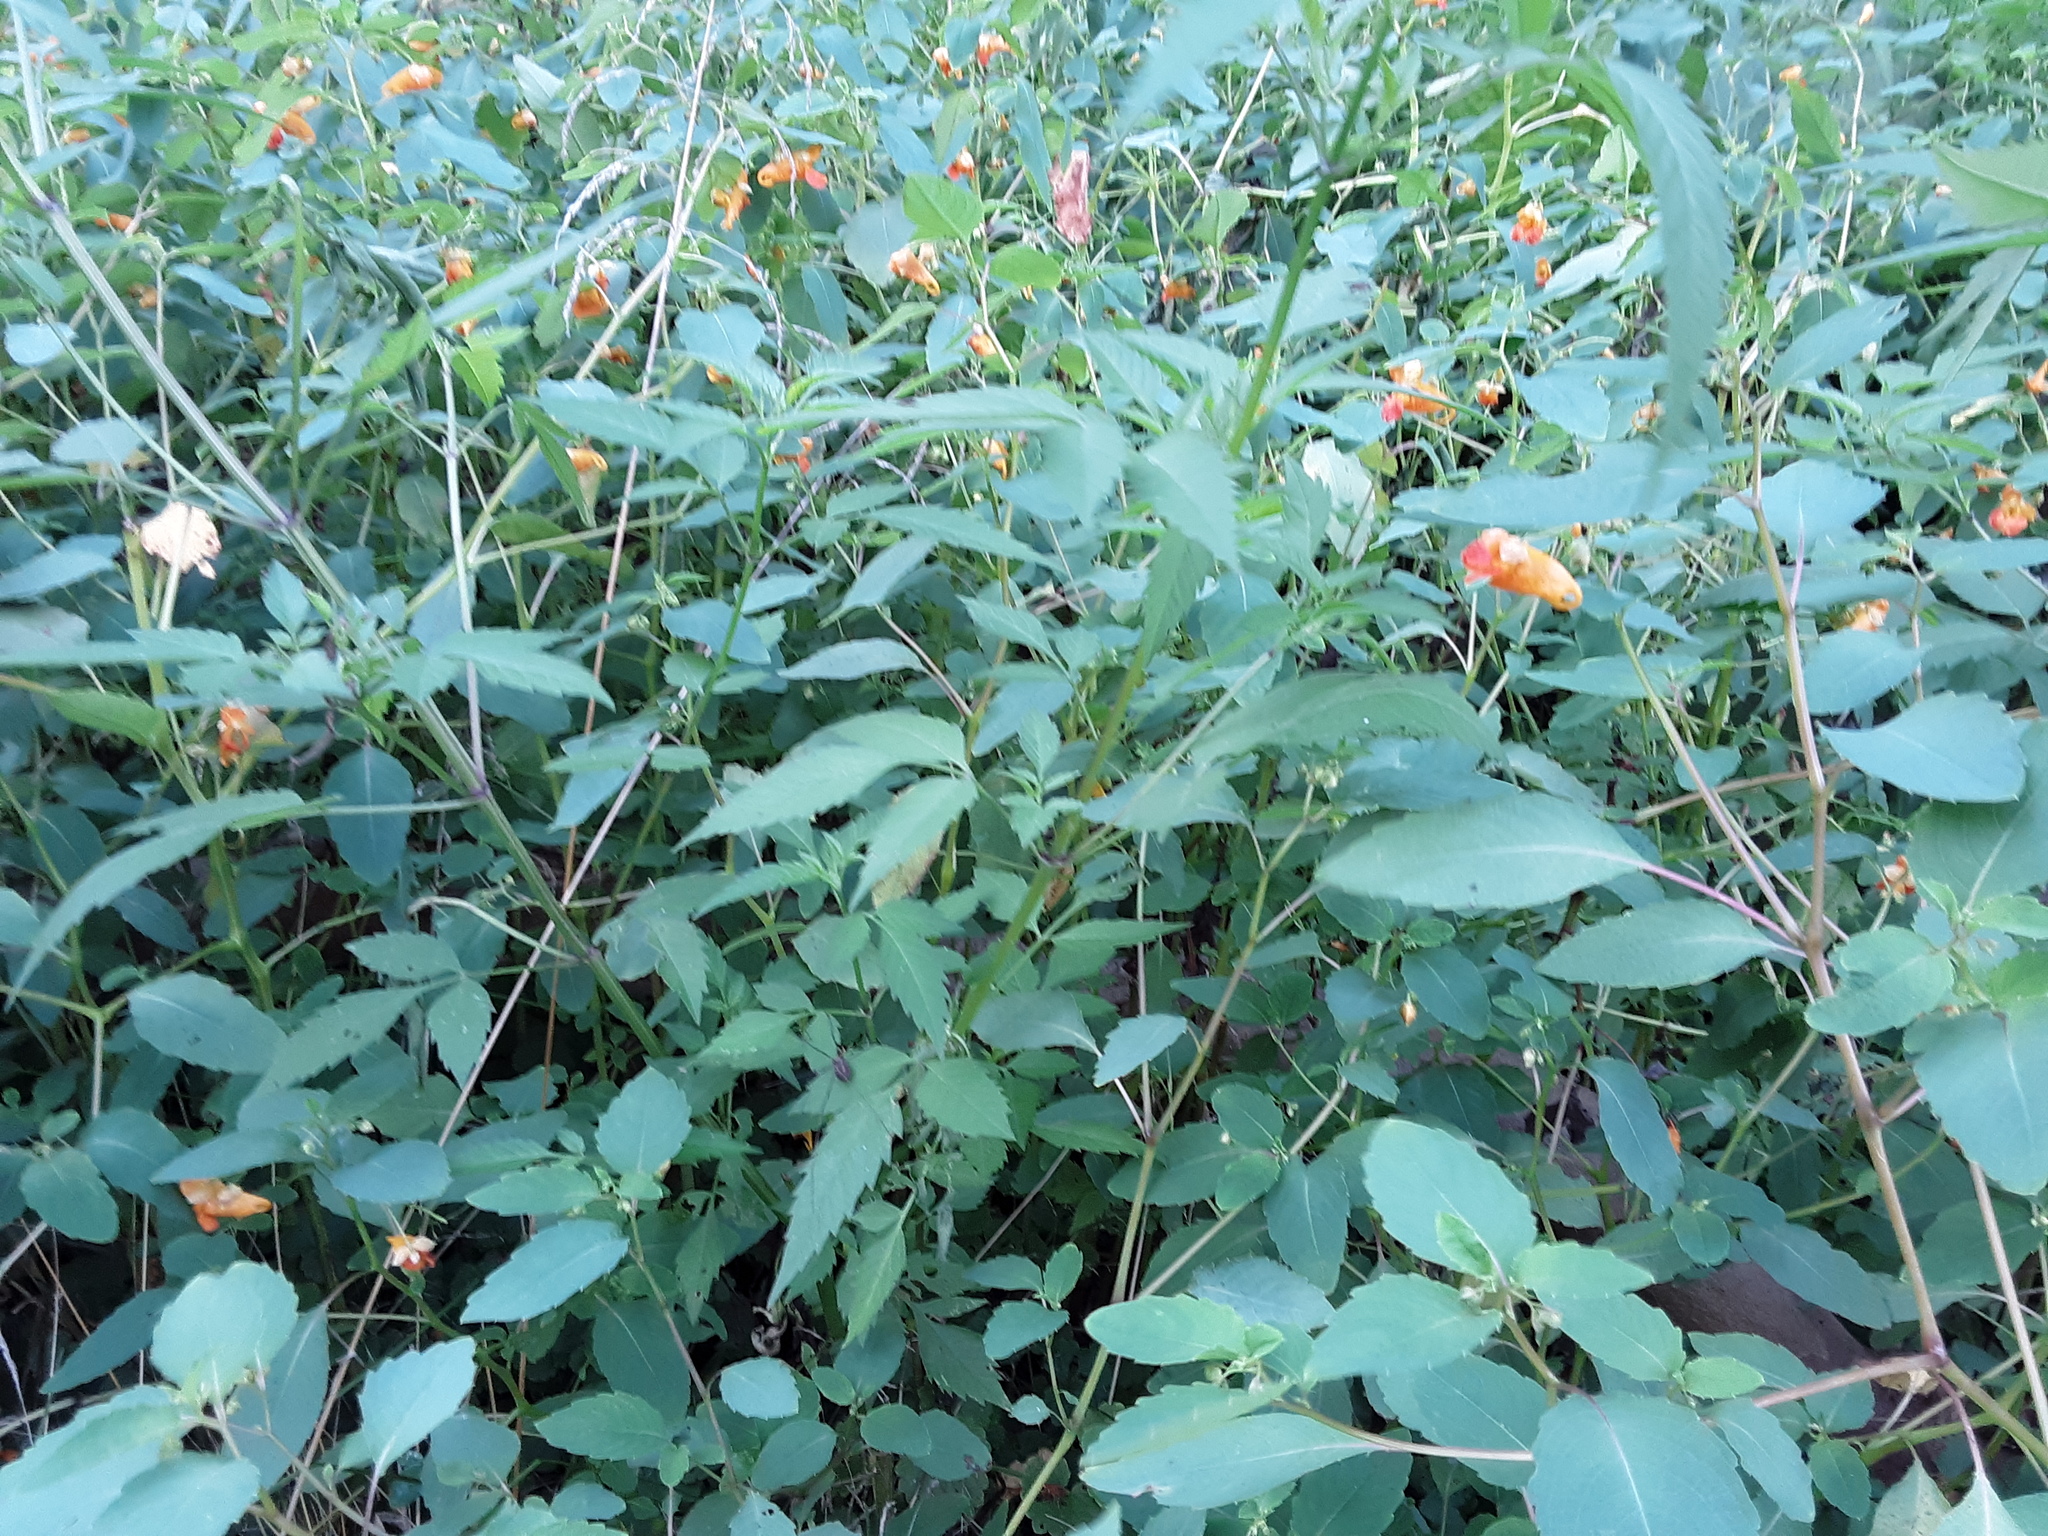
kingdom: Plantae
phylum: Tracheophyta
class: Magnoliopsida
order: Ericales
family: Balsaminaceae
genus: Impatiens
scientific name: Impatiens capensis
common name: Orange balsam
